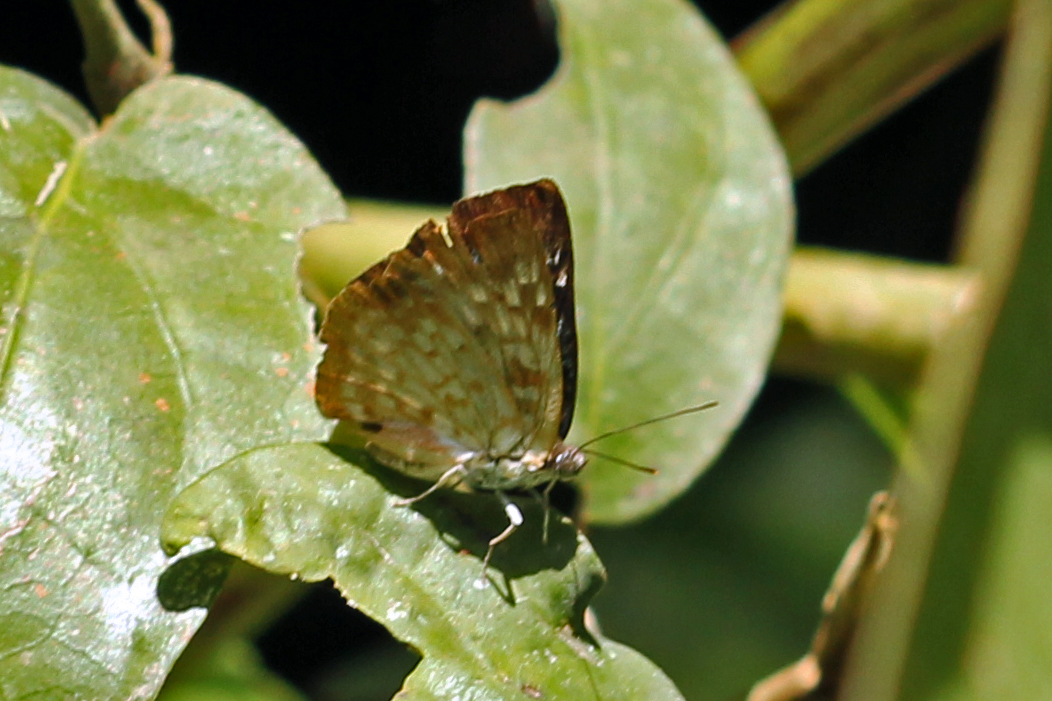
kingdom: Animalia
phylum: Arthropoda
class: Insecta
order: Lepidoptera
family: Riodinidae
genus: Periplacis
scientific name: Periplacis pretus
